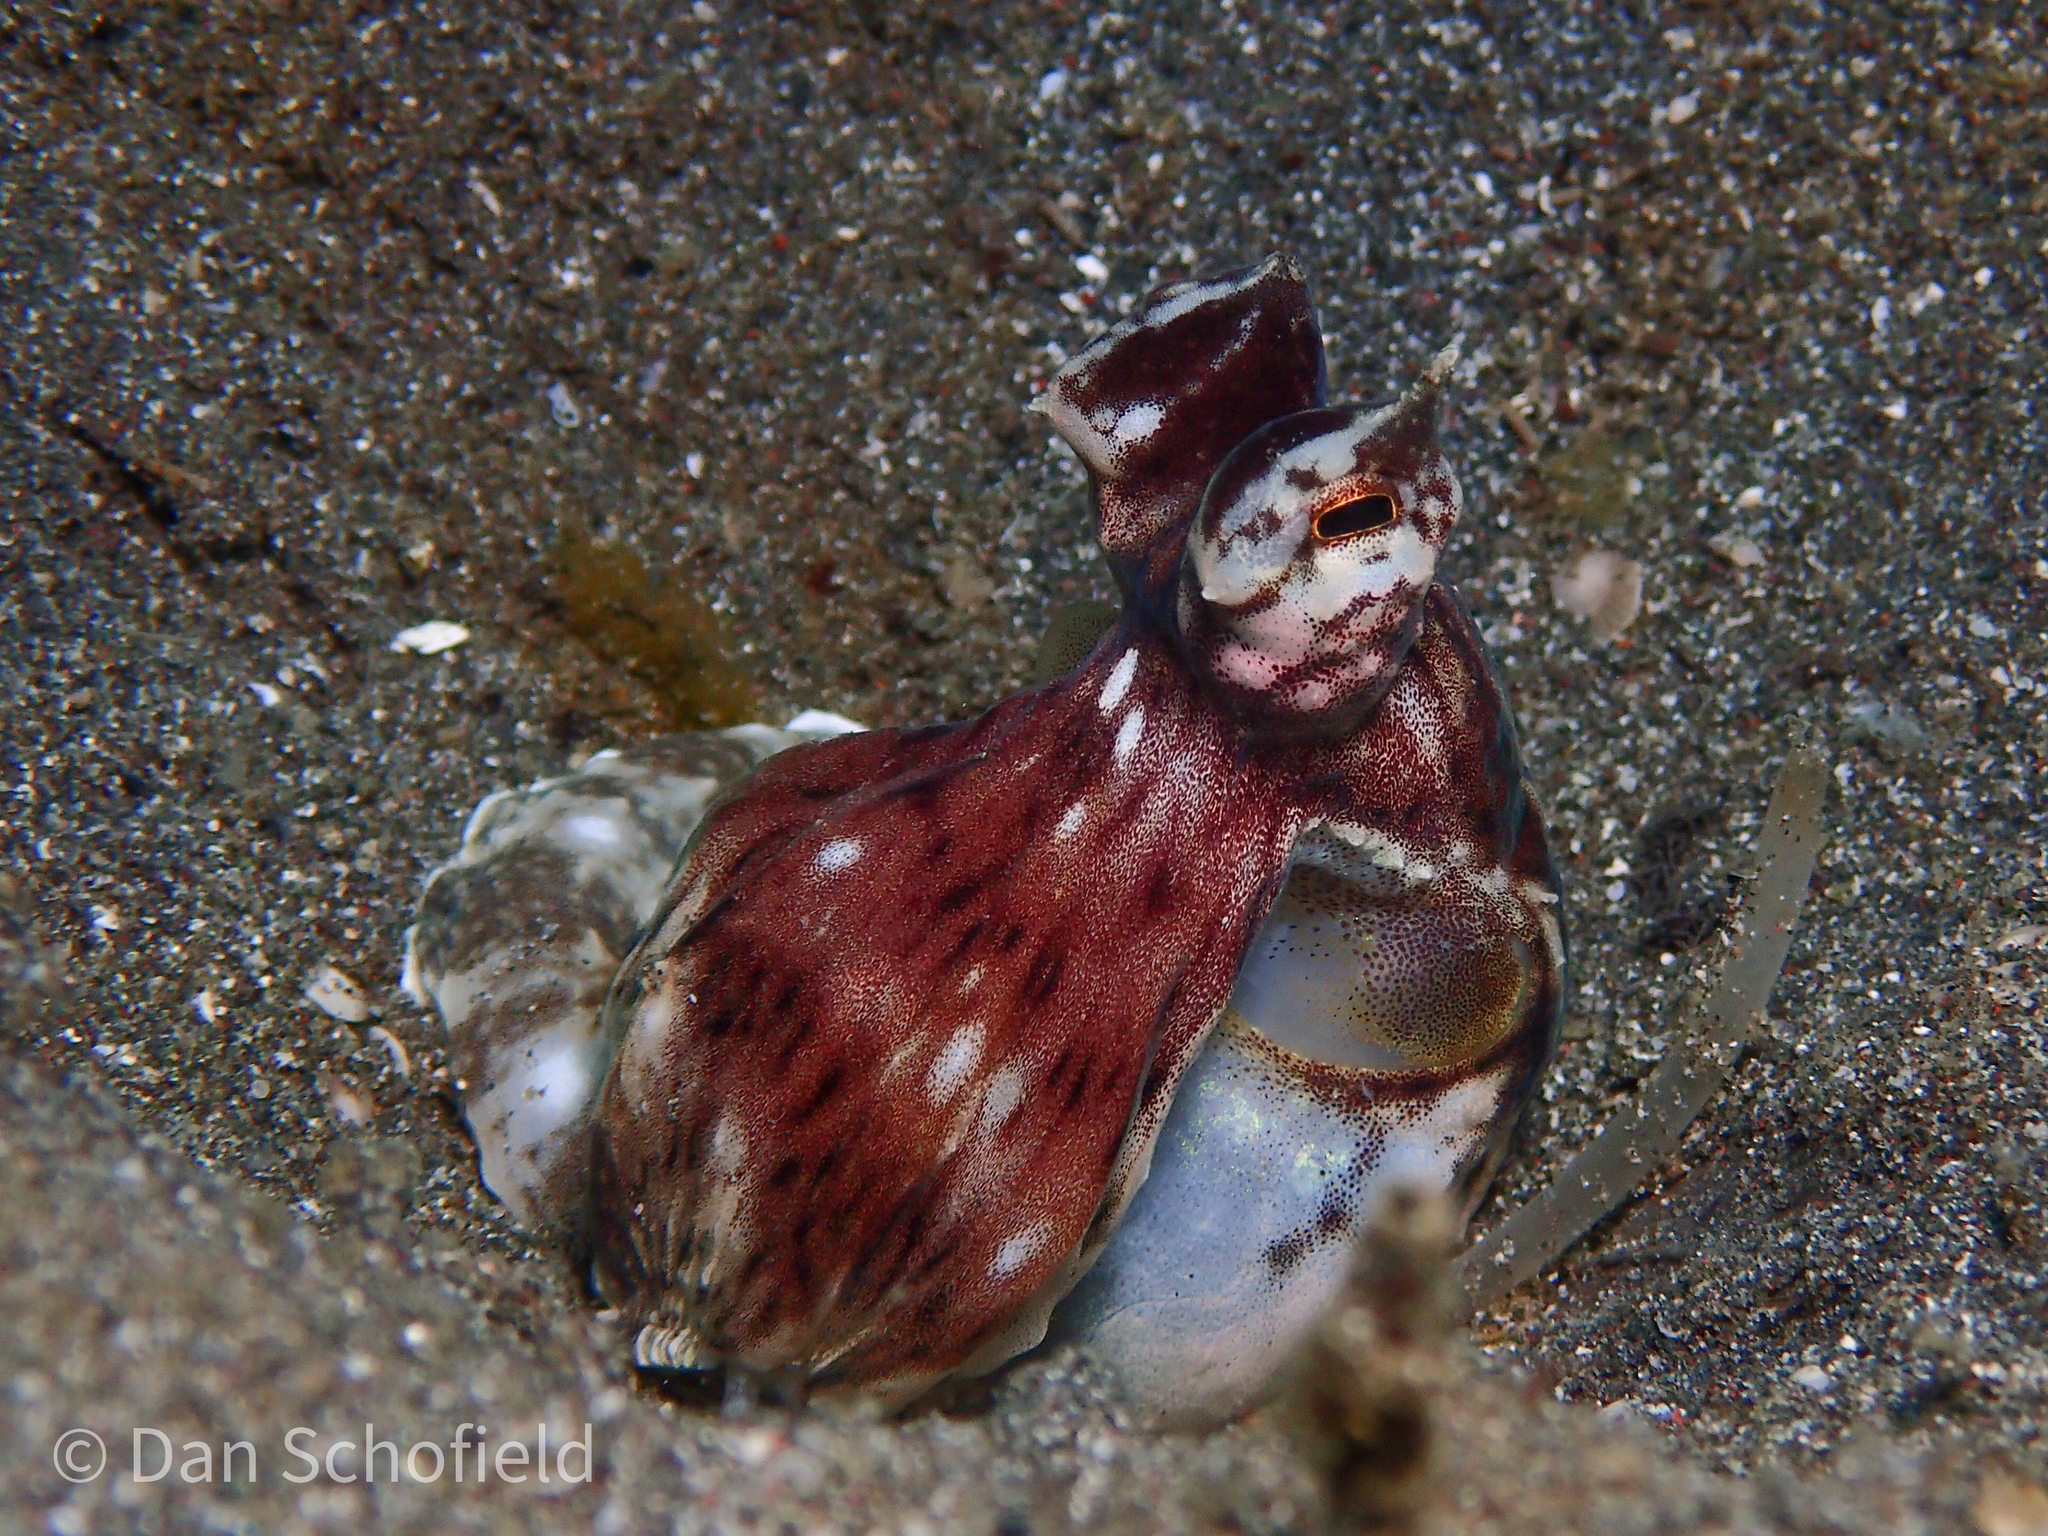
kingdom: Animalia
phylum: Mollusca
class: Cephalopoda
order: Octopoda
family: Octopodidae
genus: Thaumoctopus
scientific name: Thaumoctopus mimicus
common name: Mimic octopus
